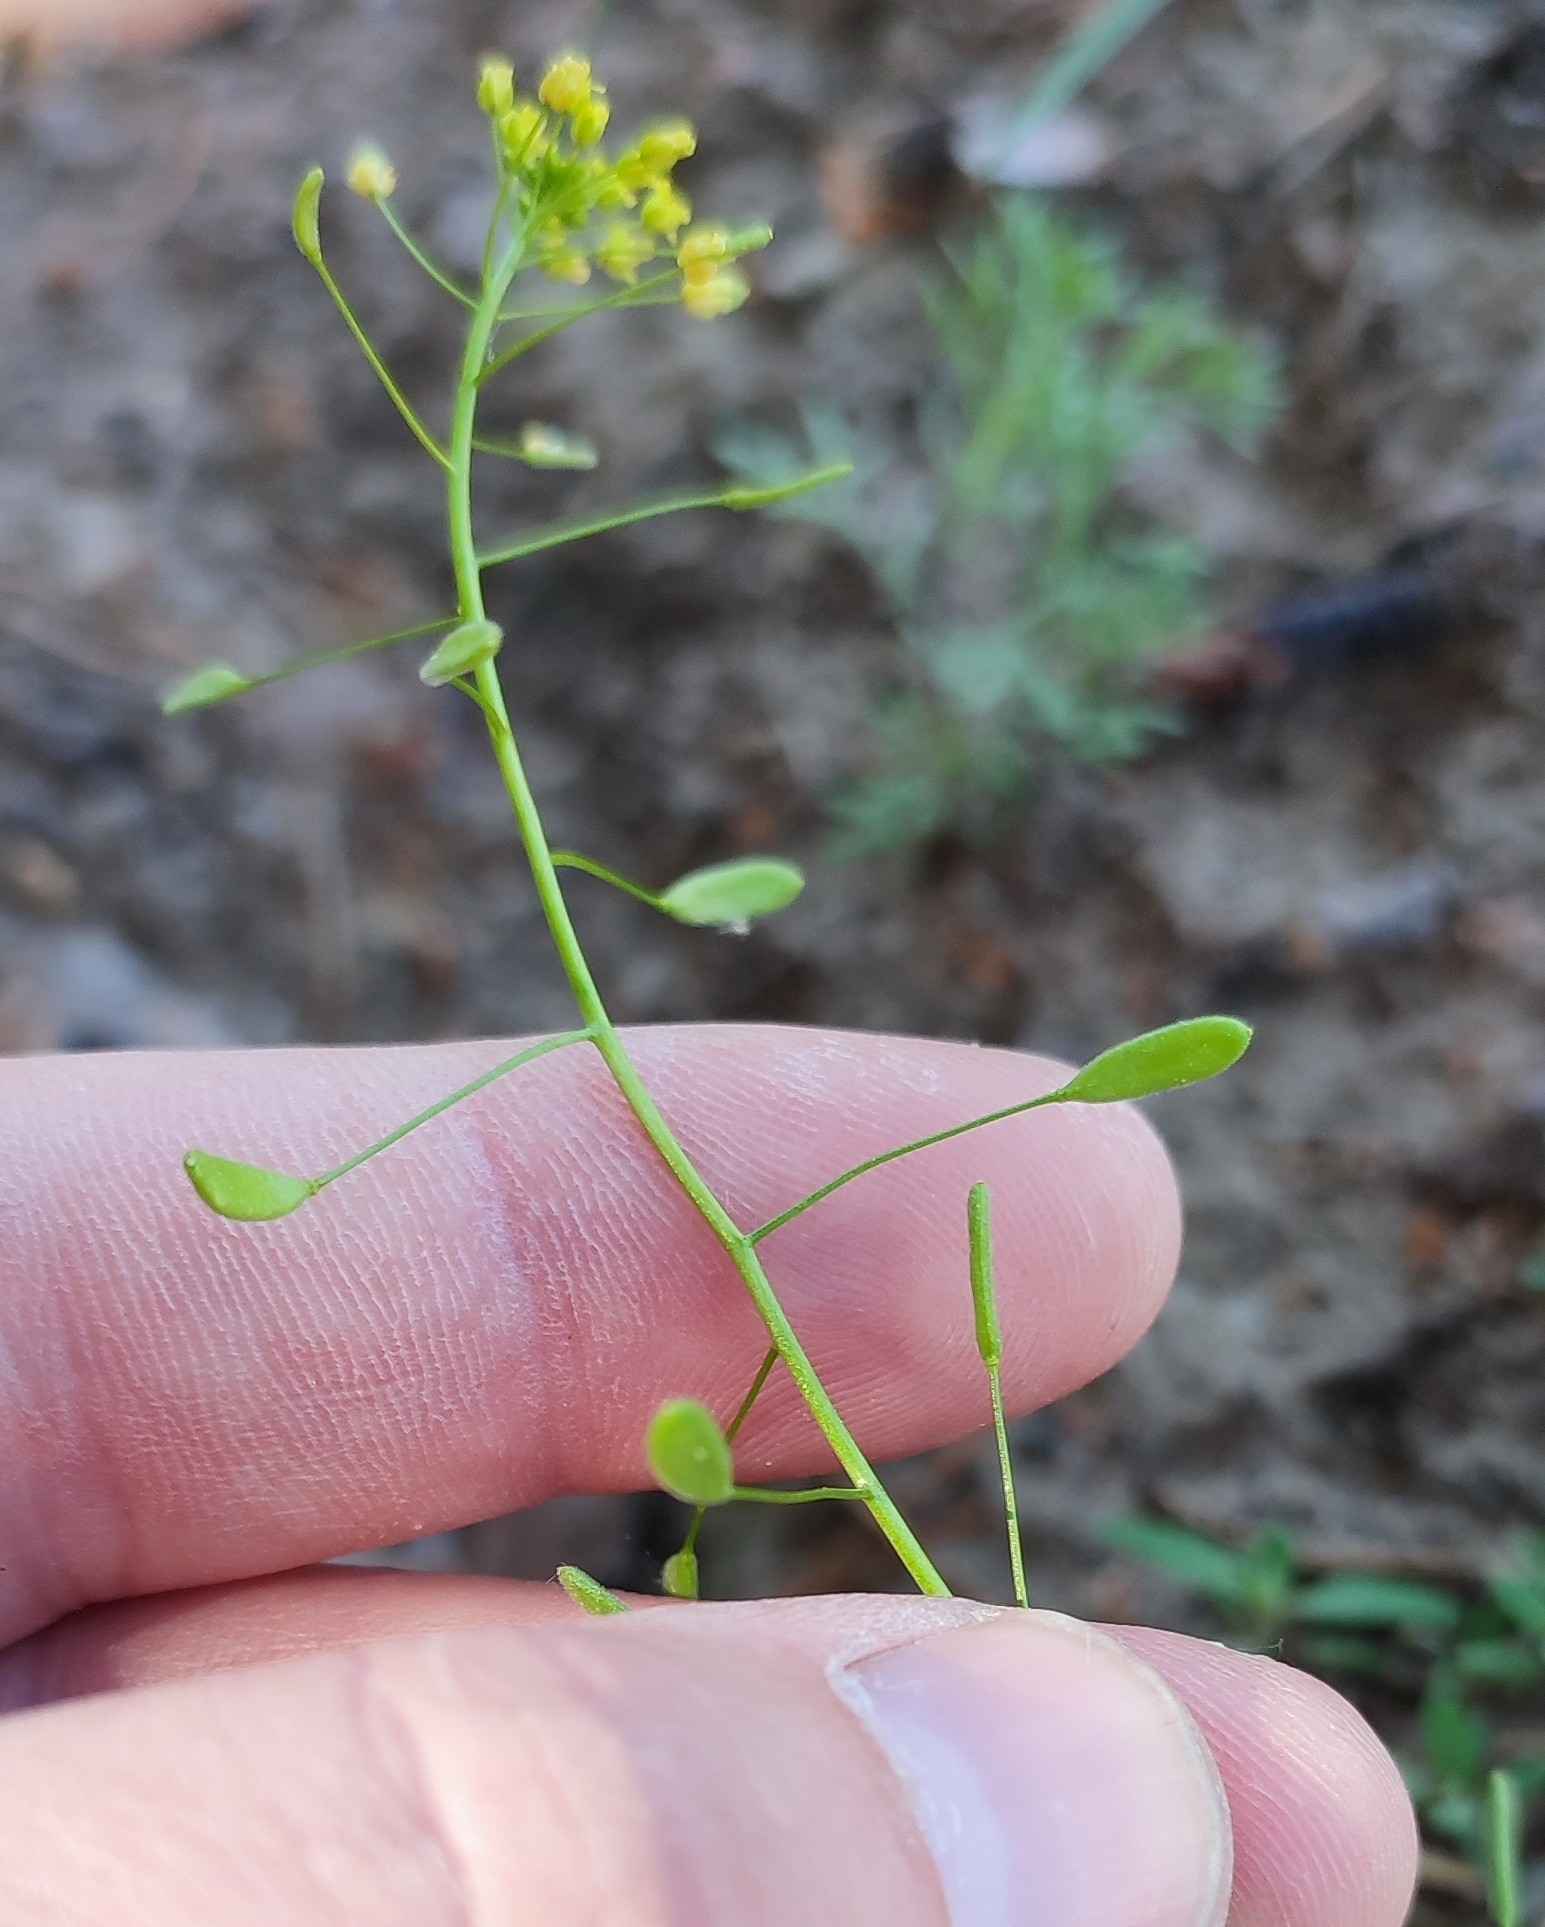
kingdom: Plantae
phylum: Tracheophyta
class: Magnoliopsida
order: Brassicales
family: Brassicaceae
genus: Draba
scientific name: Draba nemorosa
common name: Wood whitlow-grass
